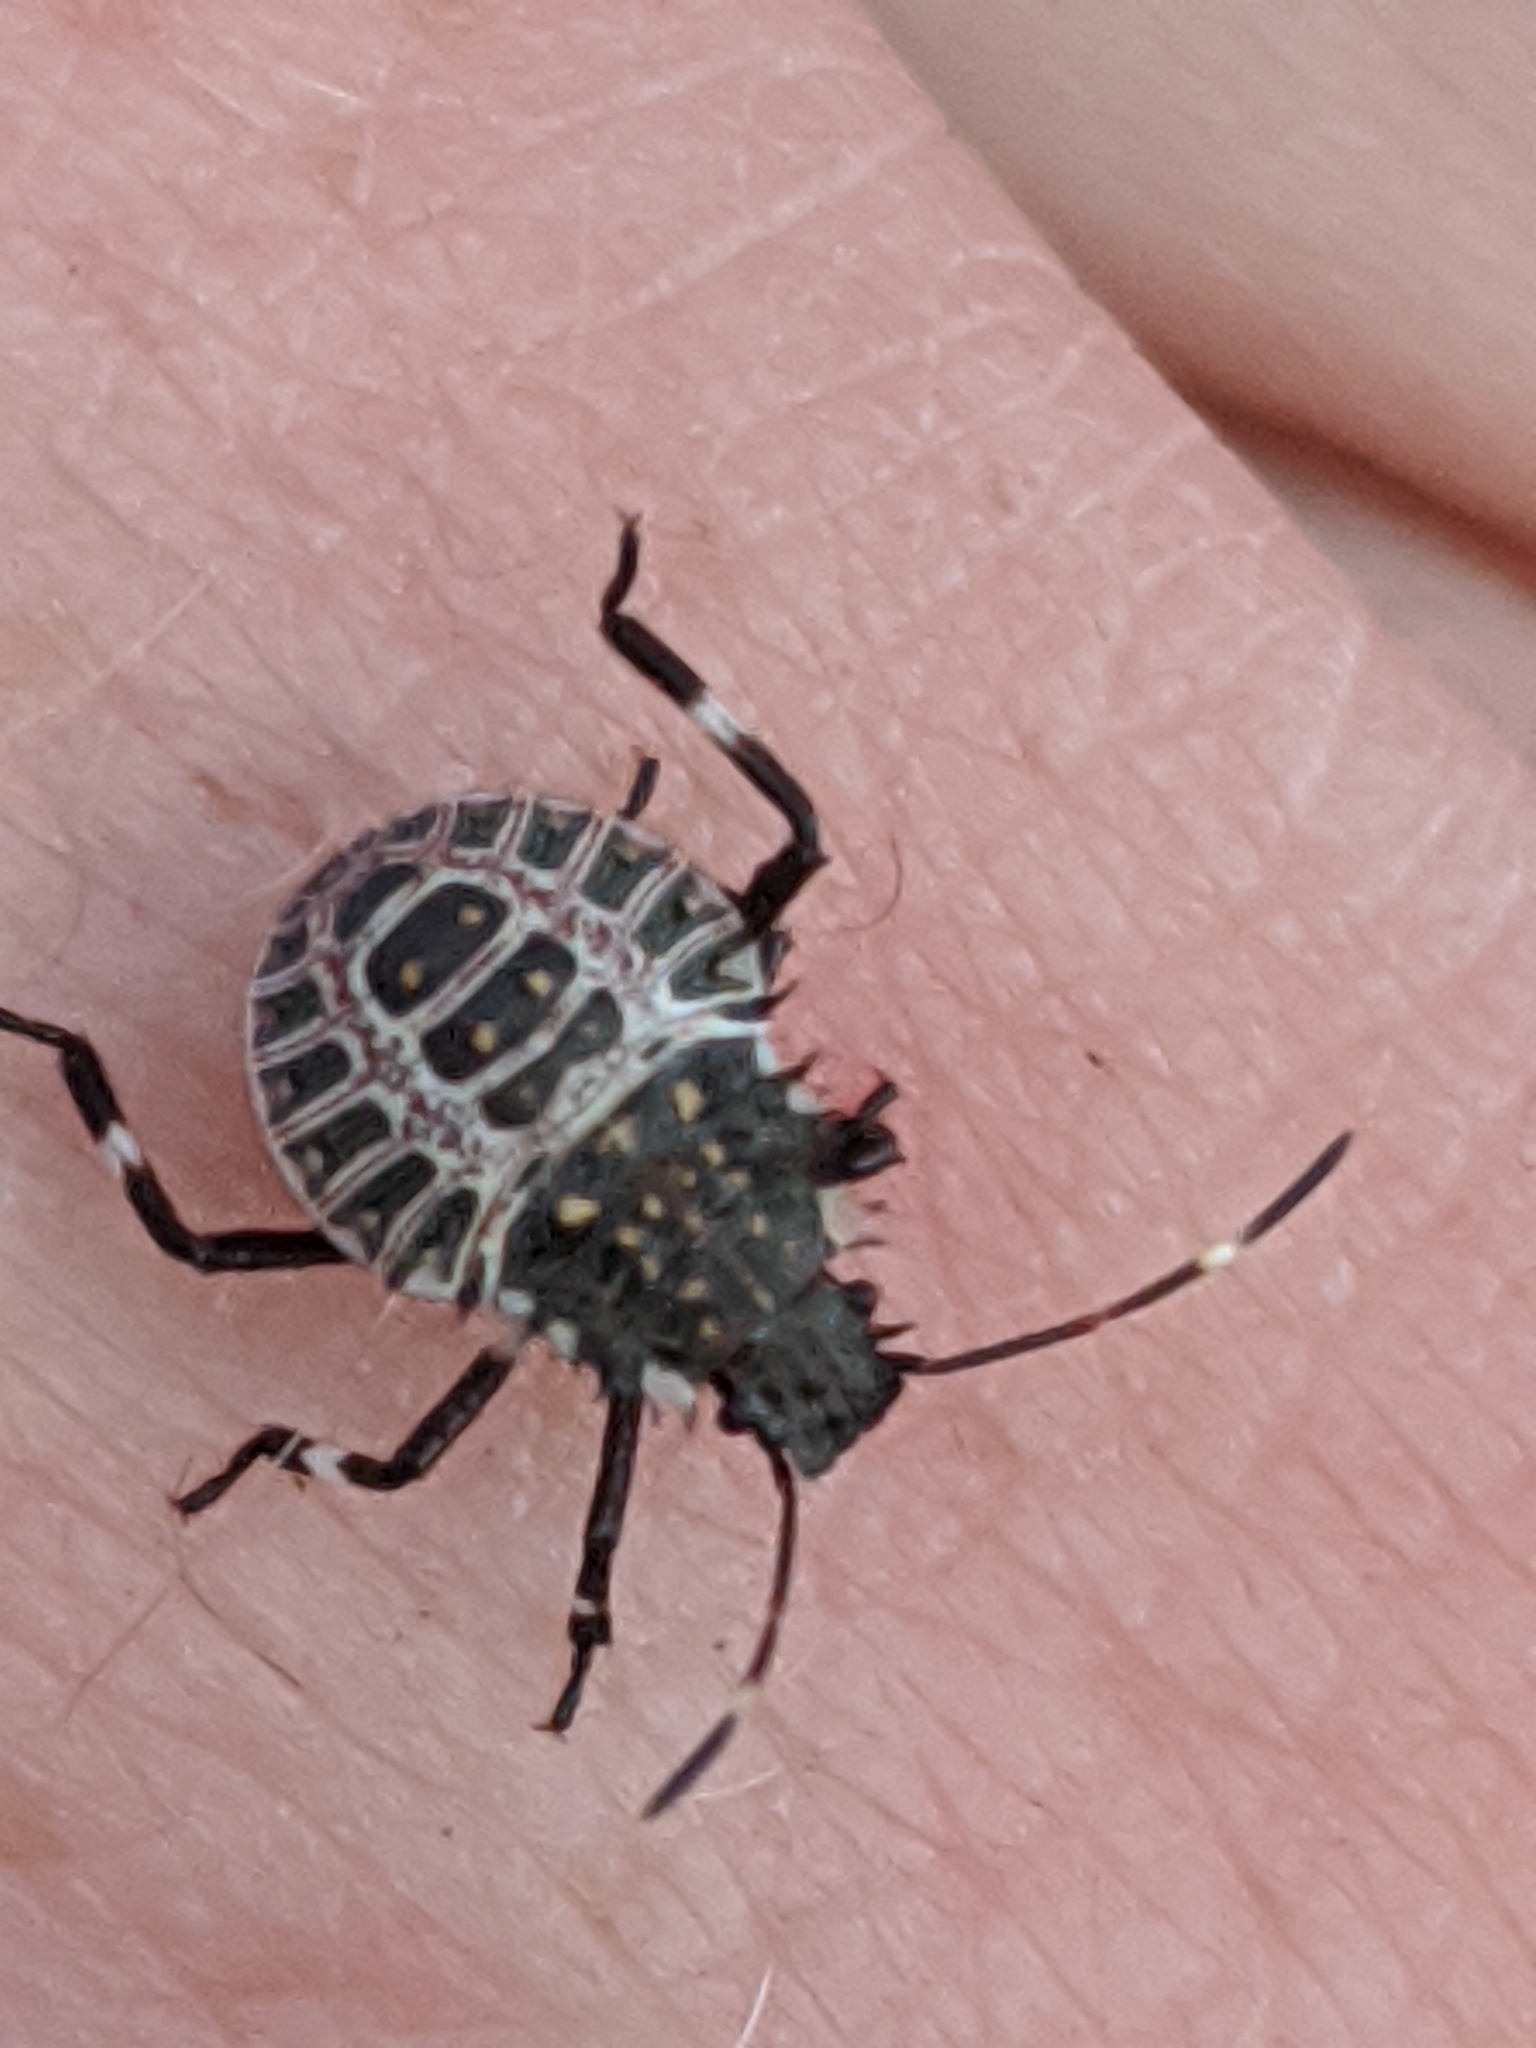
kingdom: Animalia
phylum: Arthropoda
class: Insecta
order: Hemiptera
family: Pentatomidae
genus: Halyomorpha
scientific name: Halyomorpha halys
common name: Brown marmorated stink bug
